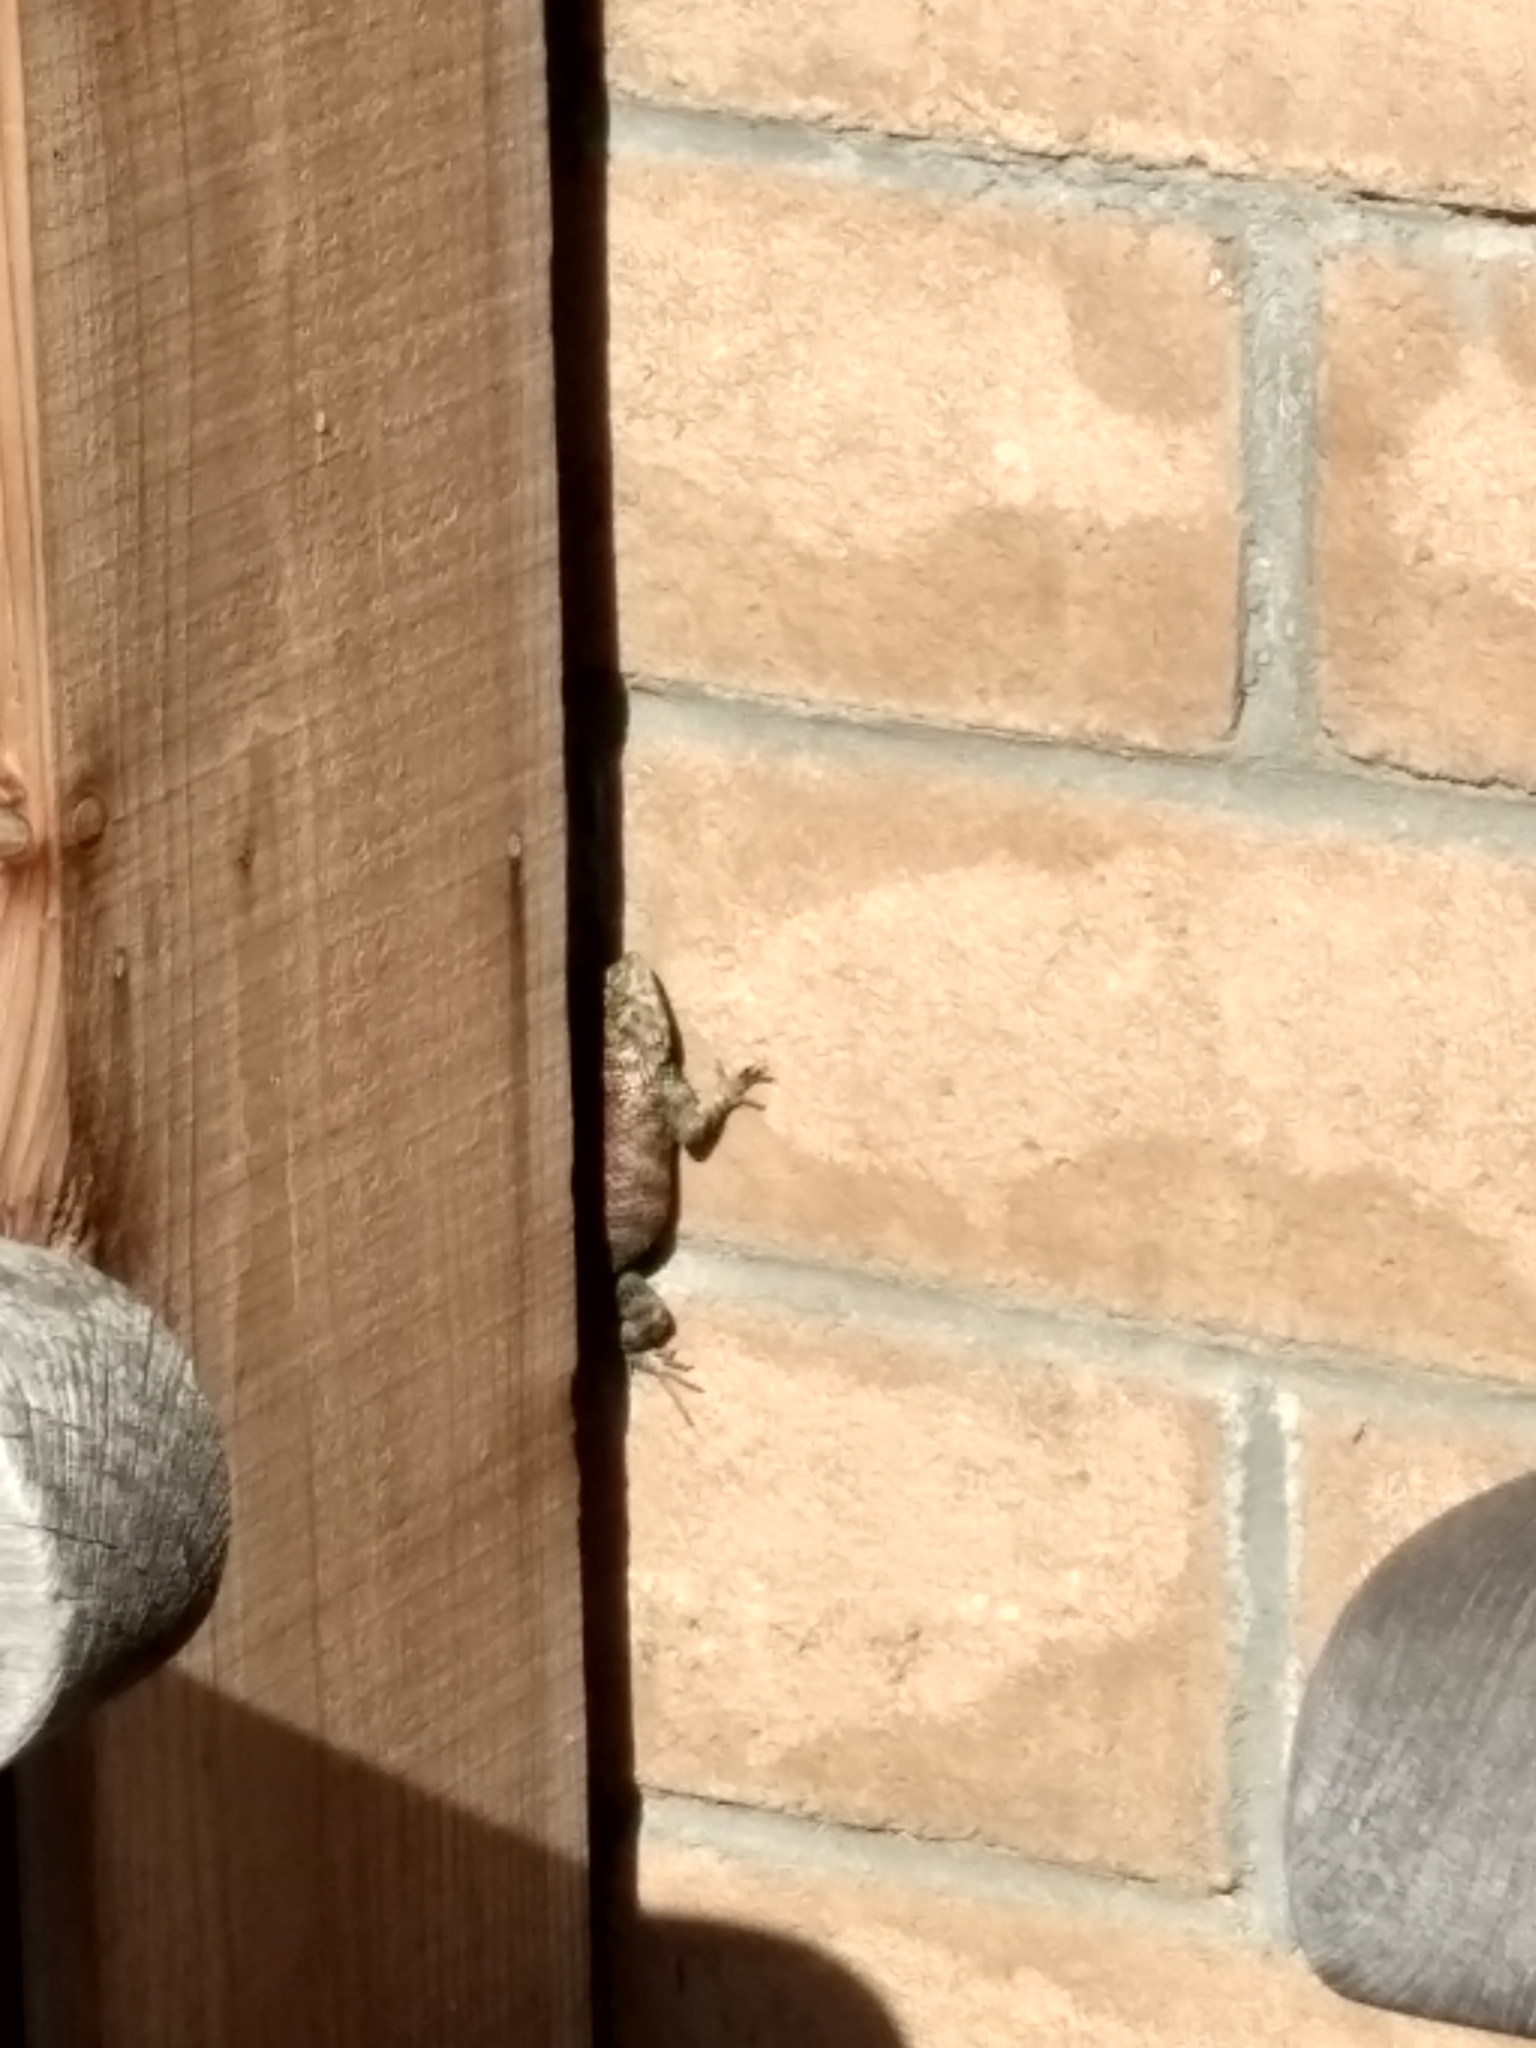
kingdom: Animalia
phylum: Chordata
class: Squamata
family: Phrynosomatidae
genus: Sceloporus
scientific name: Sceloporus orcutti
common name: Granite spiny lizard
